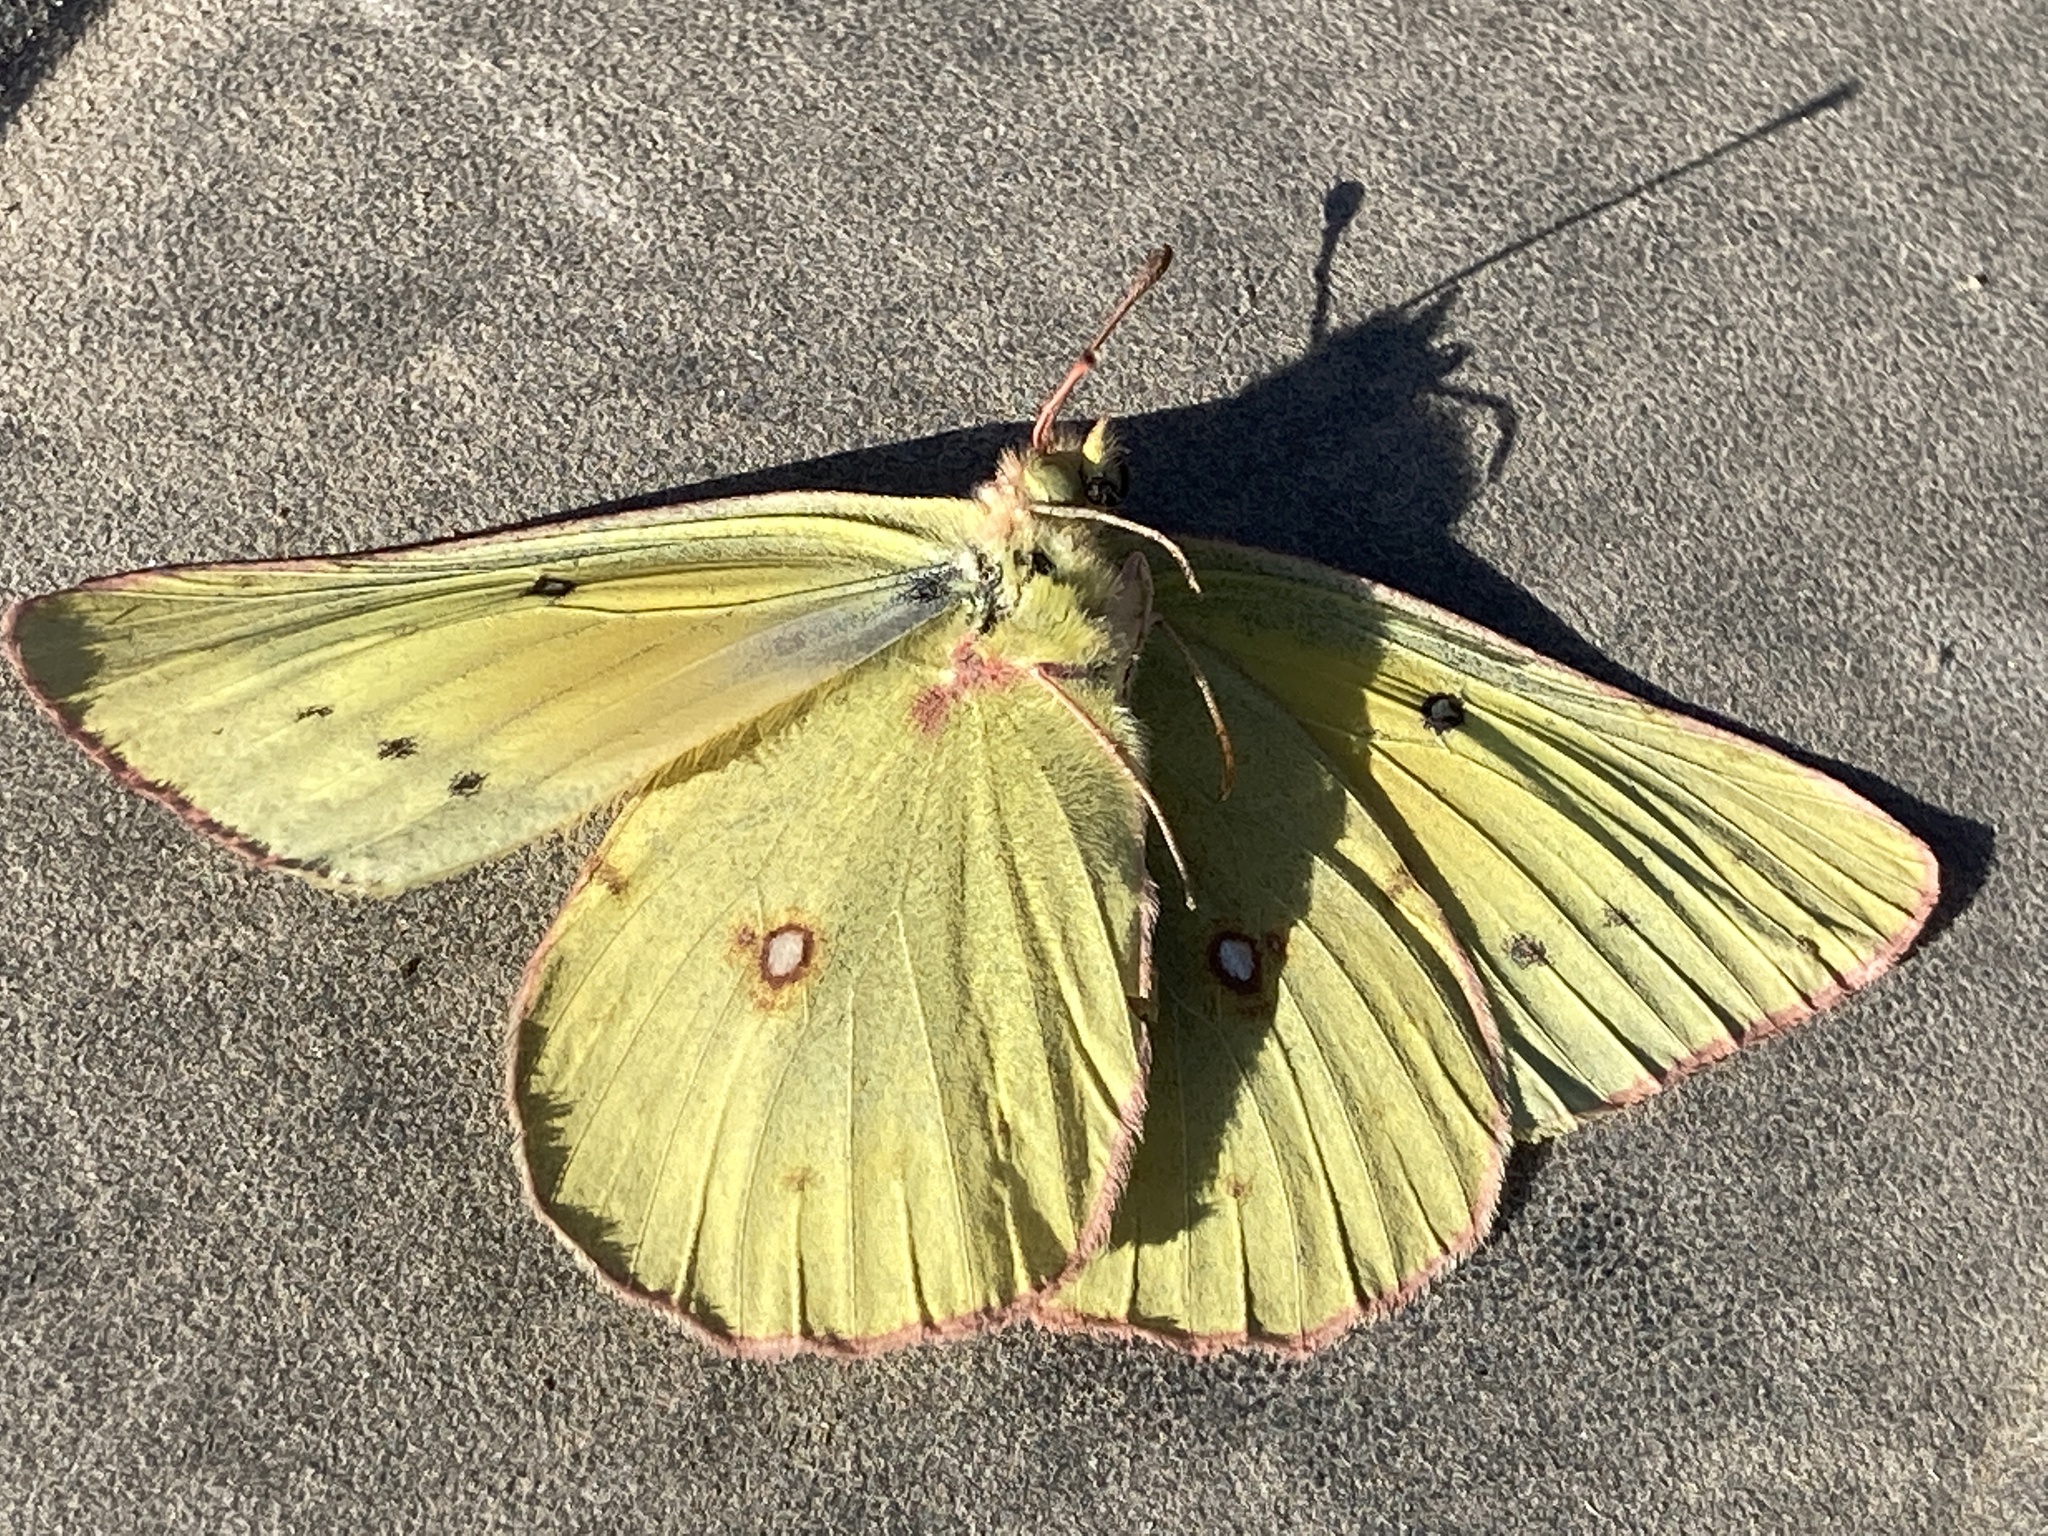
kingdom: Animalia
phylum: Arthropoda
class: Insecta
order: Lepidoptera
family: Pieridae
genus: Colias
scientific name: Colias eurytheme
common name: Alfalfa butterfly
